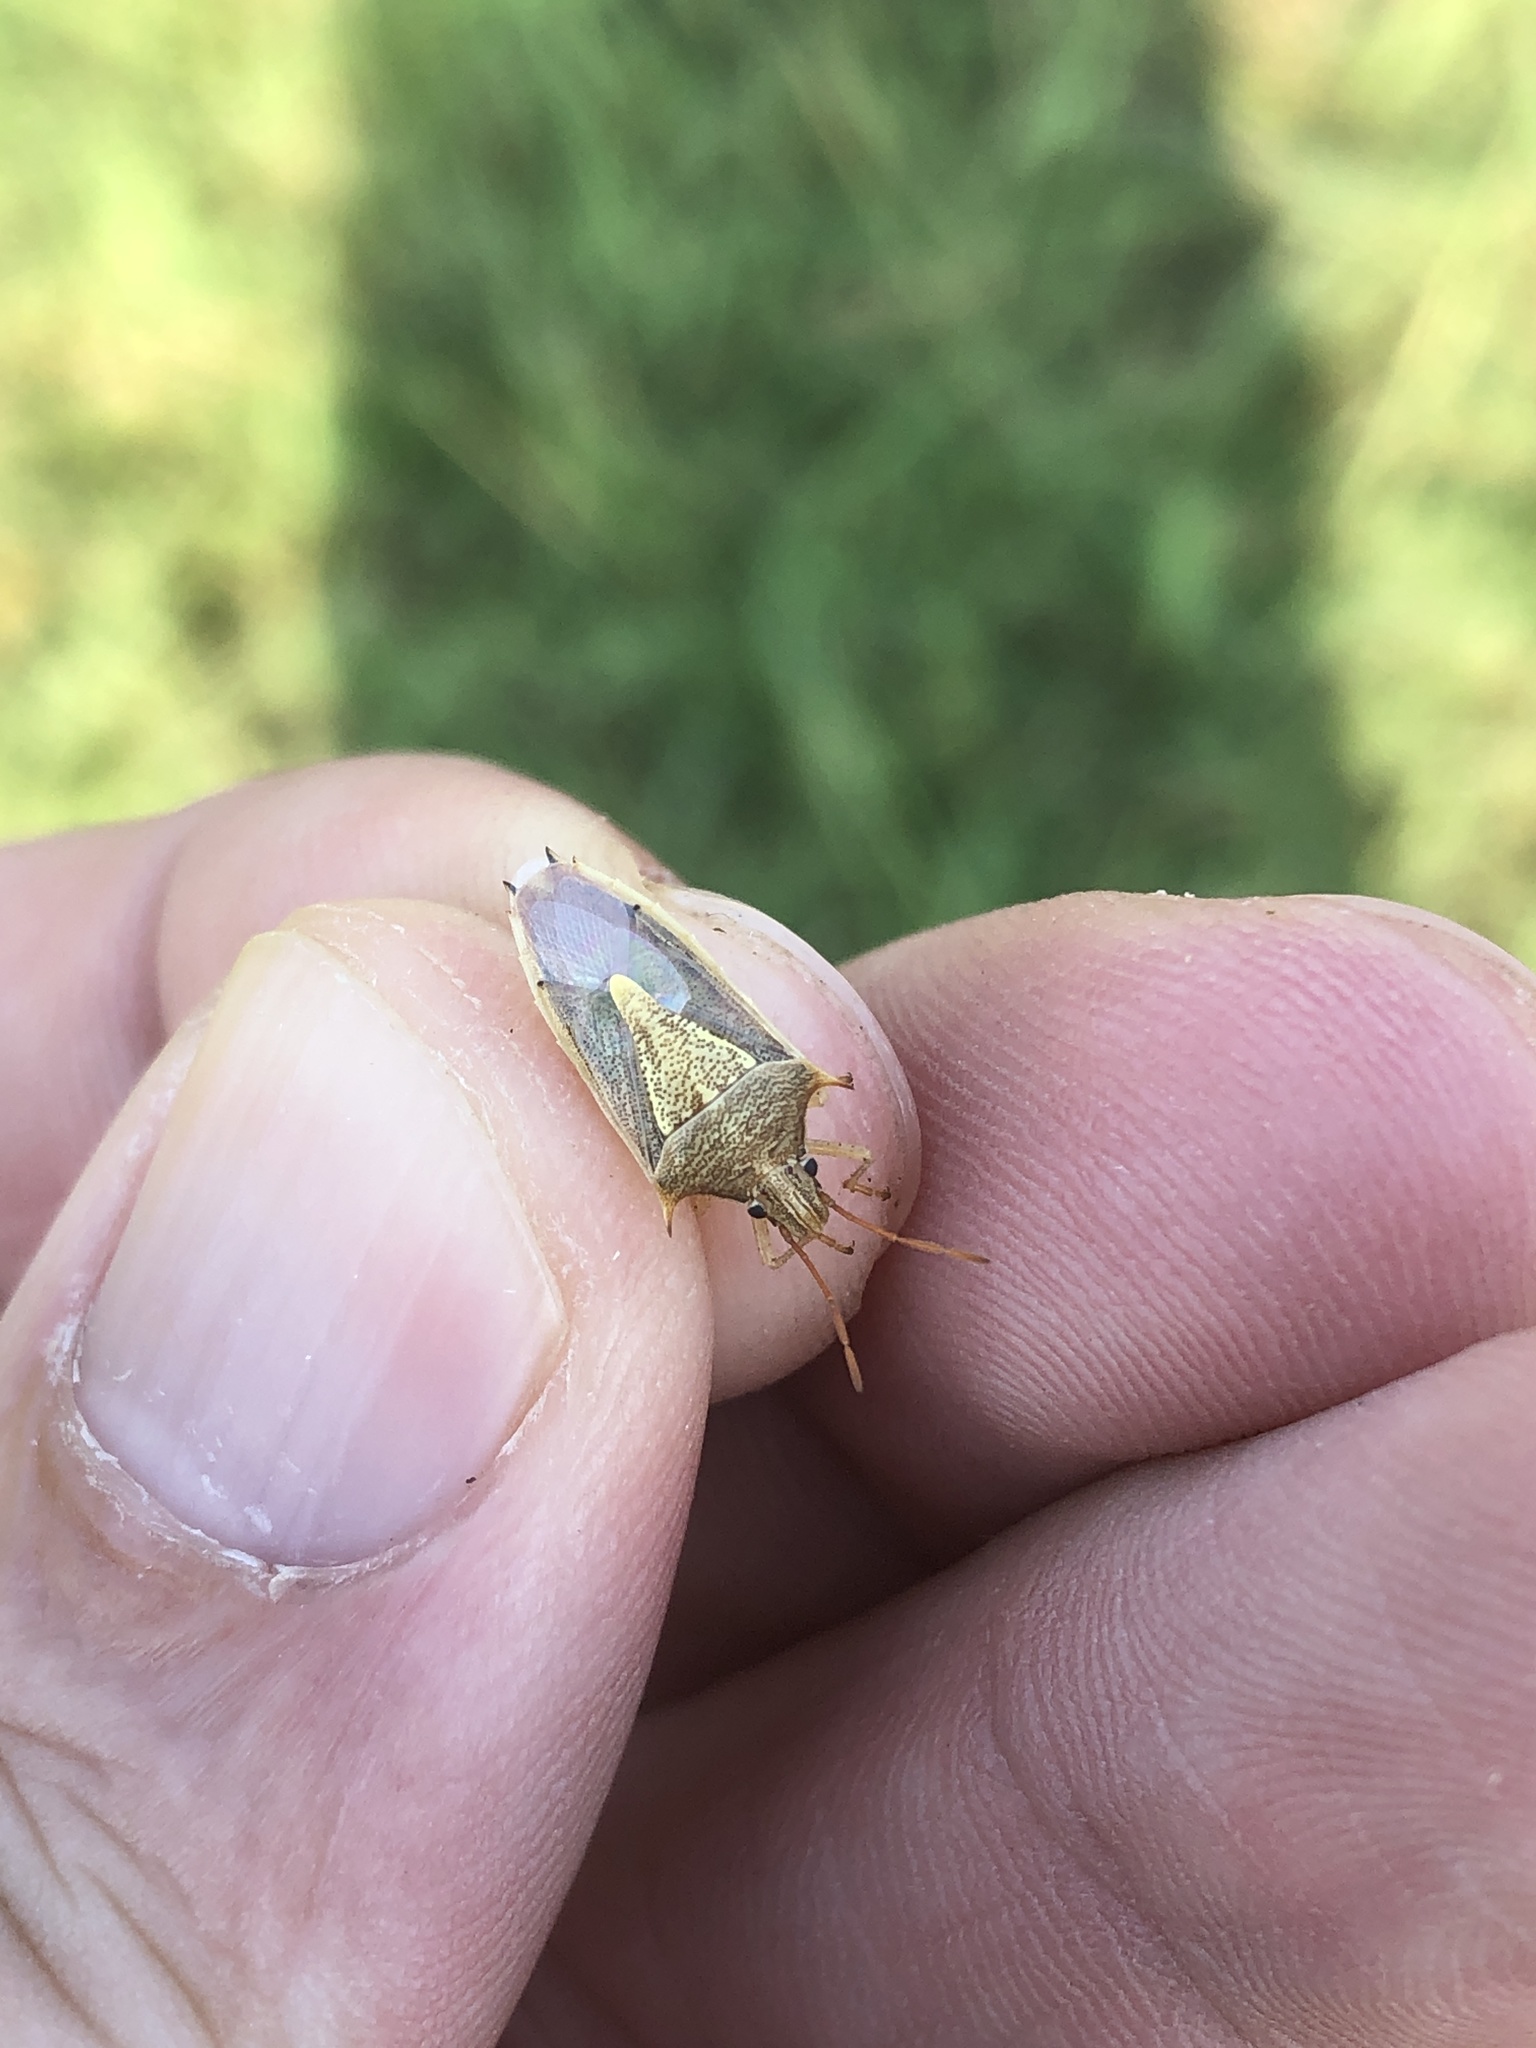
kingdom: Animalia
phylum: Arthropoda
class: Insecta
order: Hemiptera
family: Pentatomidae
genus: Oebalus
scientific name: Oebalus pugnax
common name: Rice stink bug
